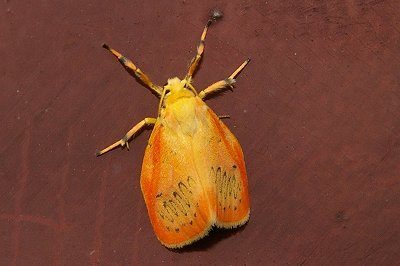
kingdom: Animalia
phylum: Arthropoda
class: Insecta
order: Lepidoptera
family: Erebidae
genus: Miltochrista
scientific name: Miltochrista miniata
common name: Rosy footman
